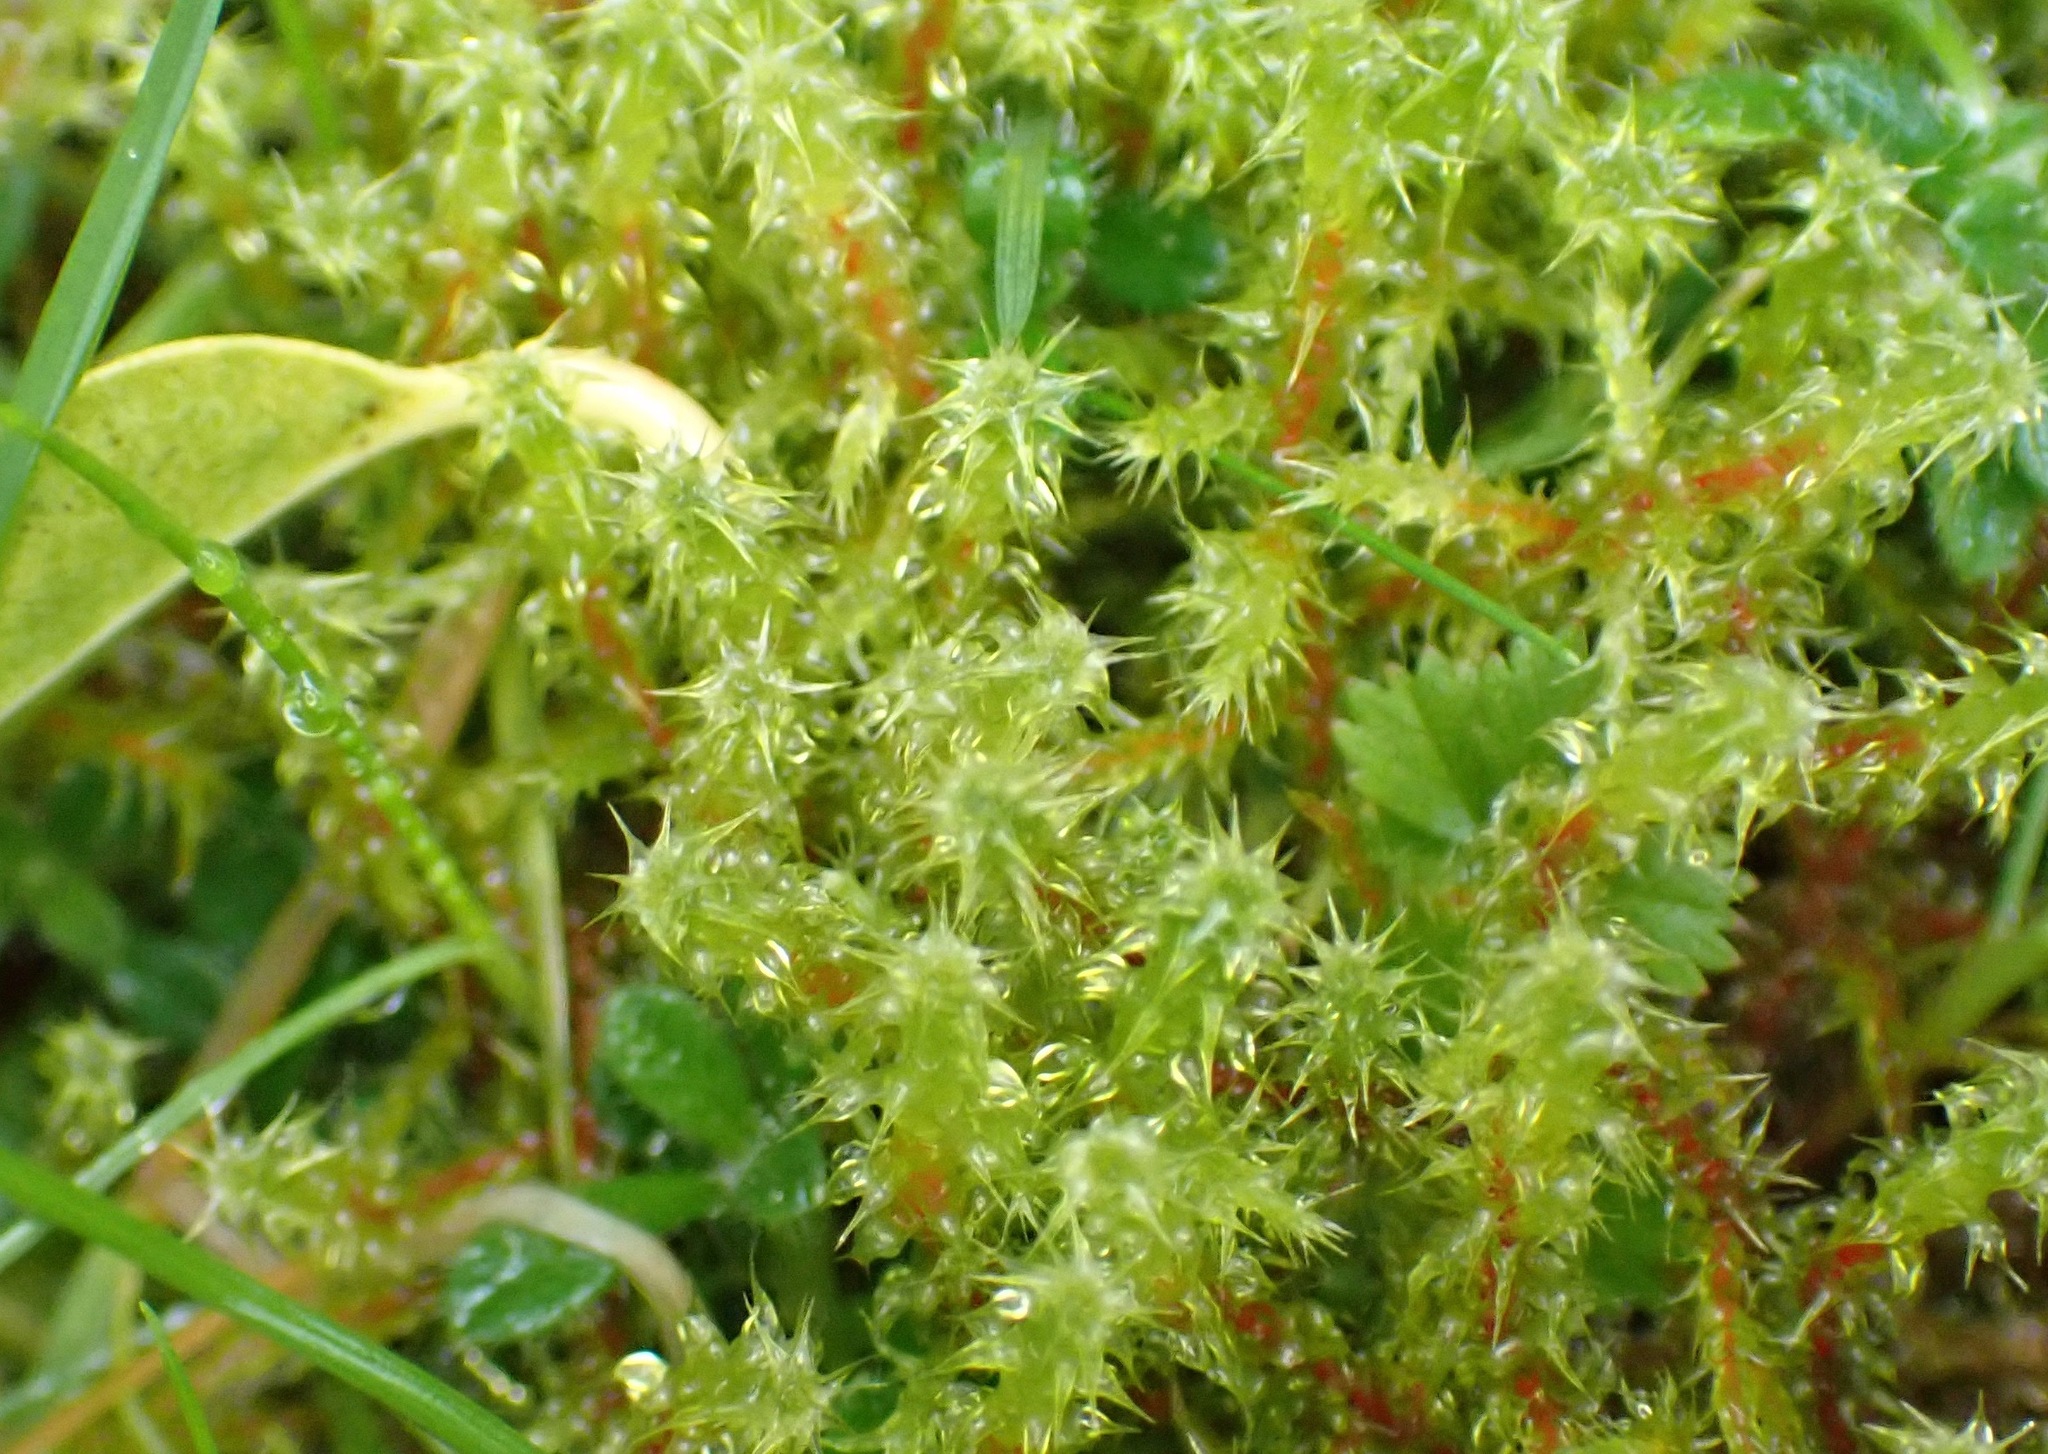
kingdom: Plantae
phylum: Bryophyta
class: Bryopsida
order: Hypnales
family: Hylocomiaceae
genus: Rhytidiadelphus
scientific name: Rhytidiadelphus squarrosus
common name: Springy turf-moss
